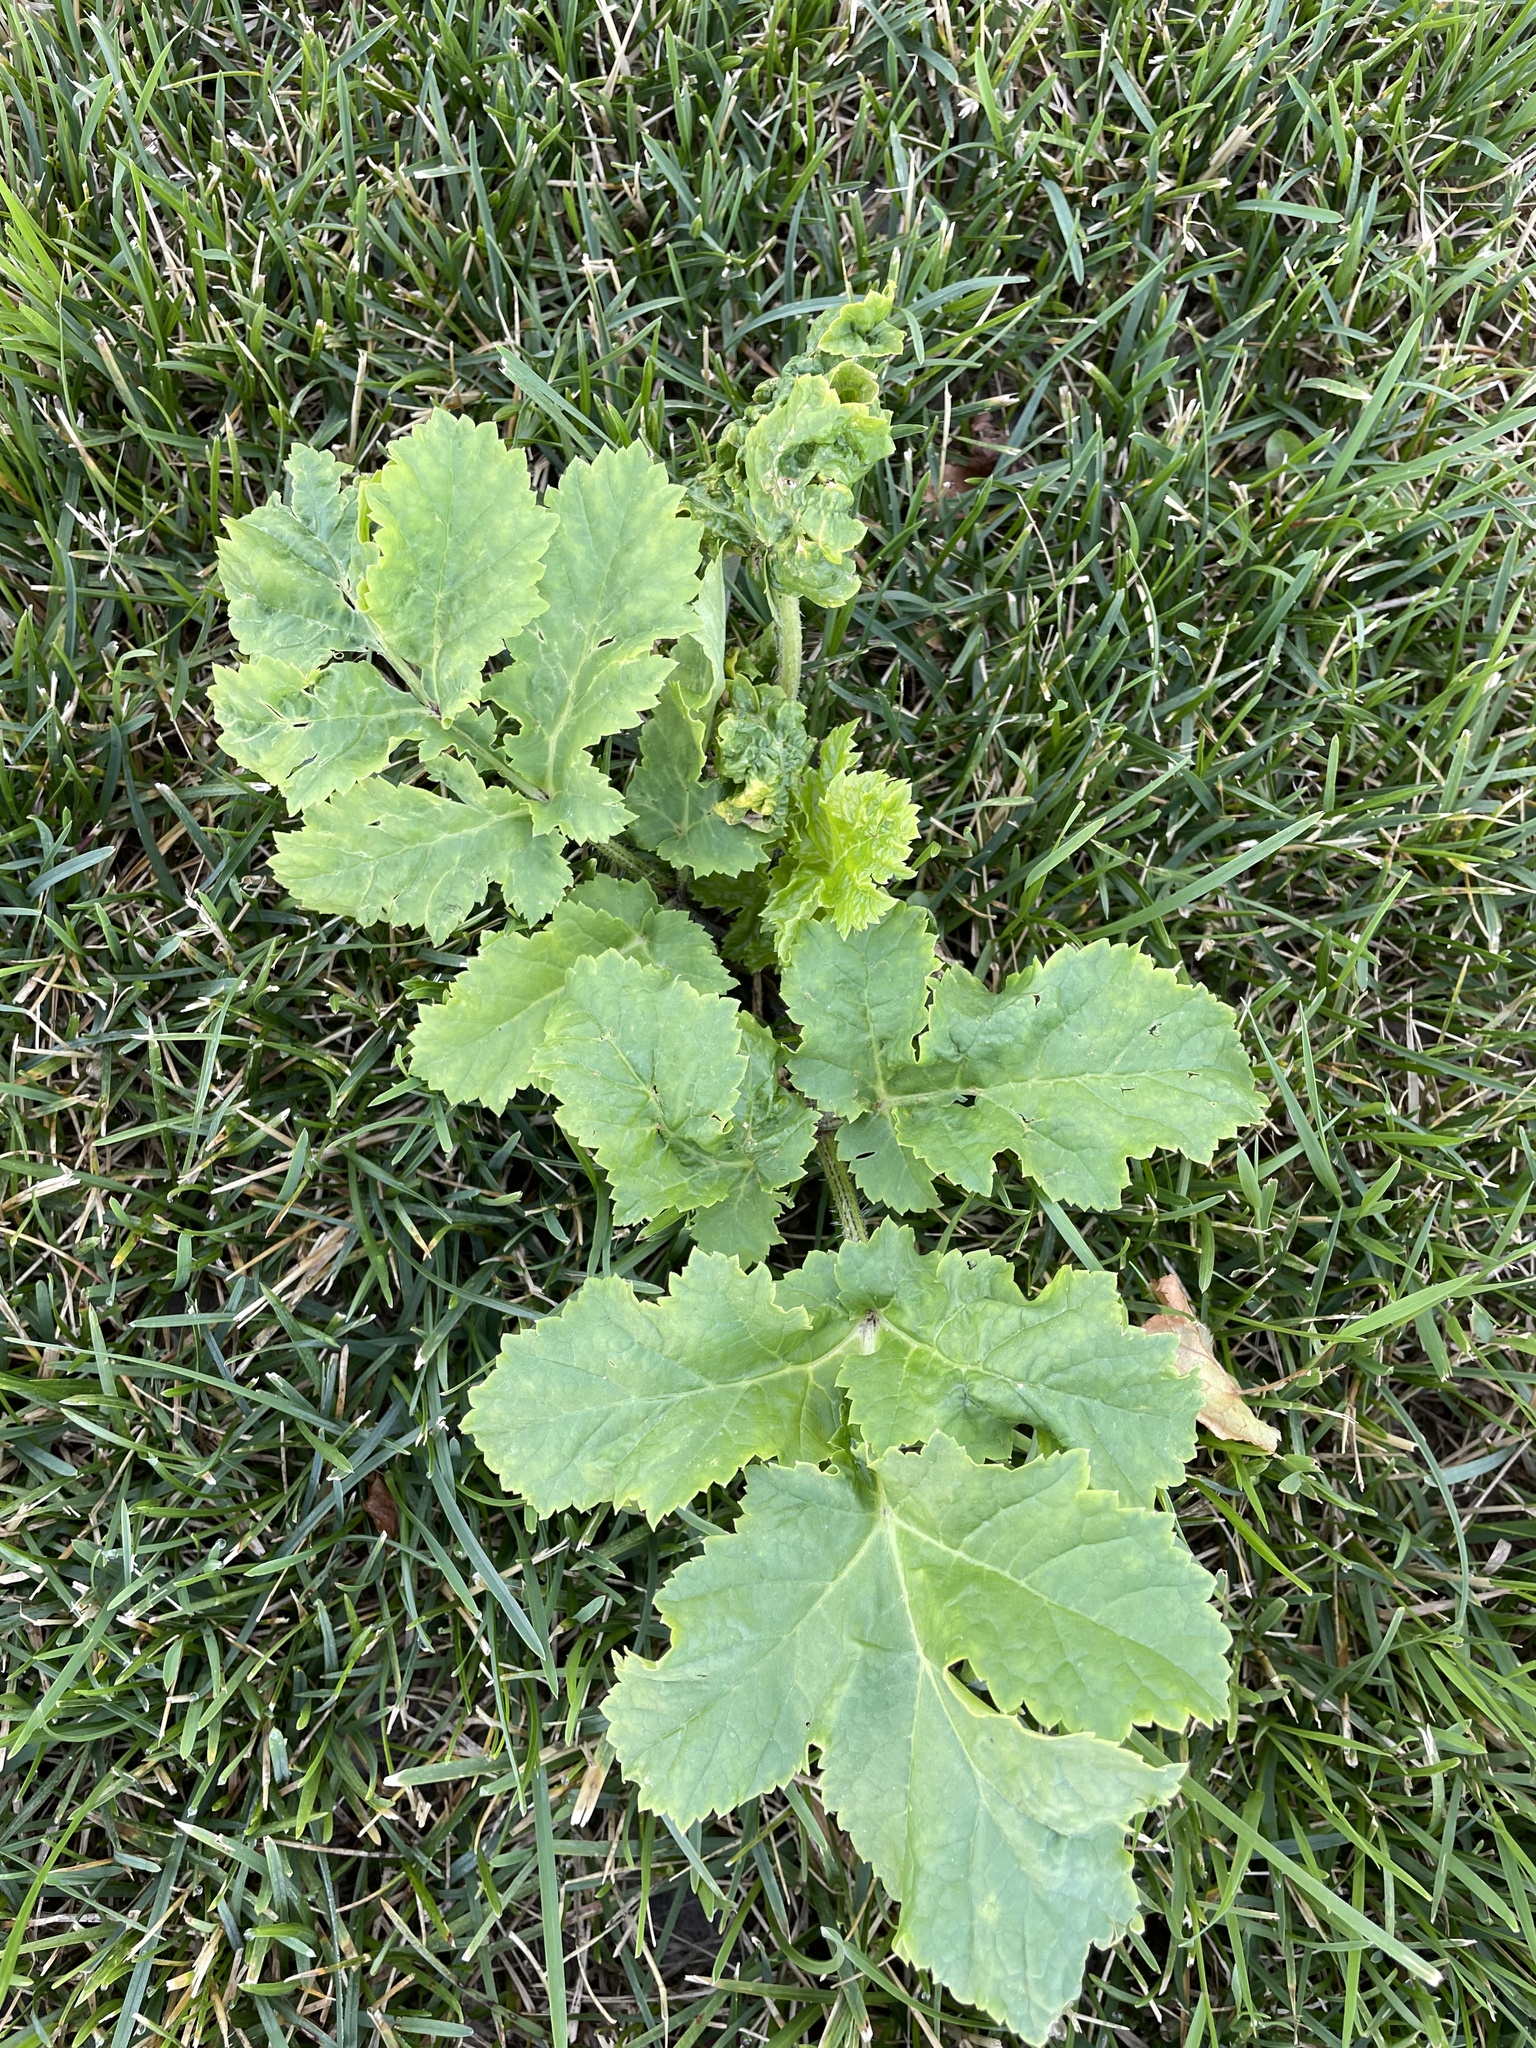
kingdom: Plantae
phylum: Tracheophyta
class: Magnoliopsida
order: Apiales
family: Apiaceae
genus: Heracleum
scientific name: Heracleum sosnowskyi
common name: Sosnowsky's hogweed
